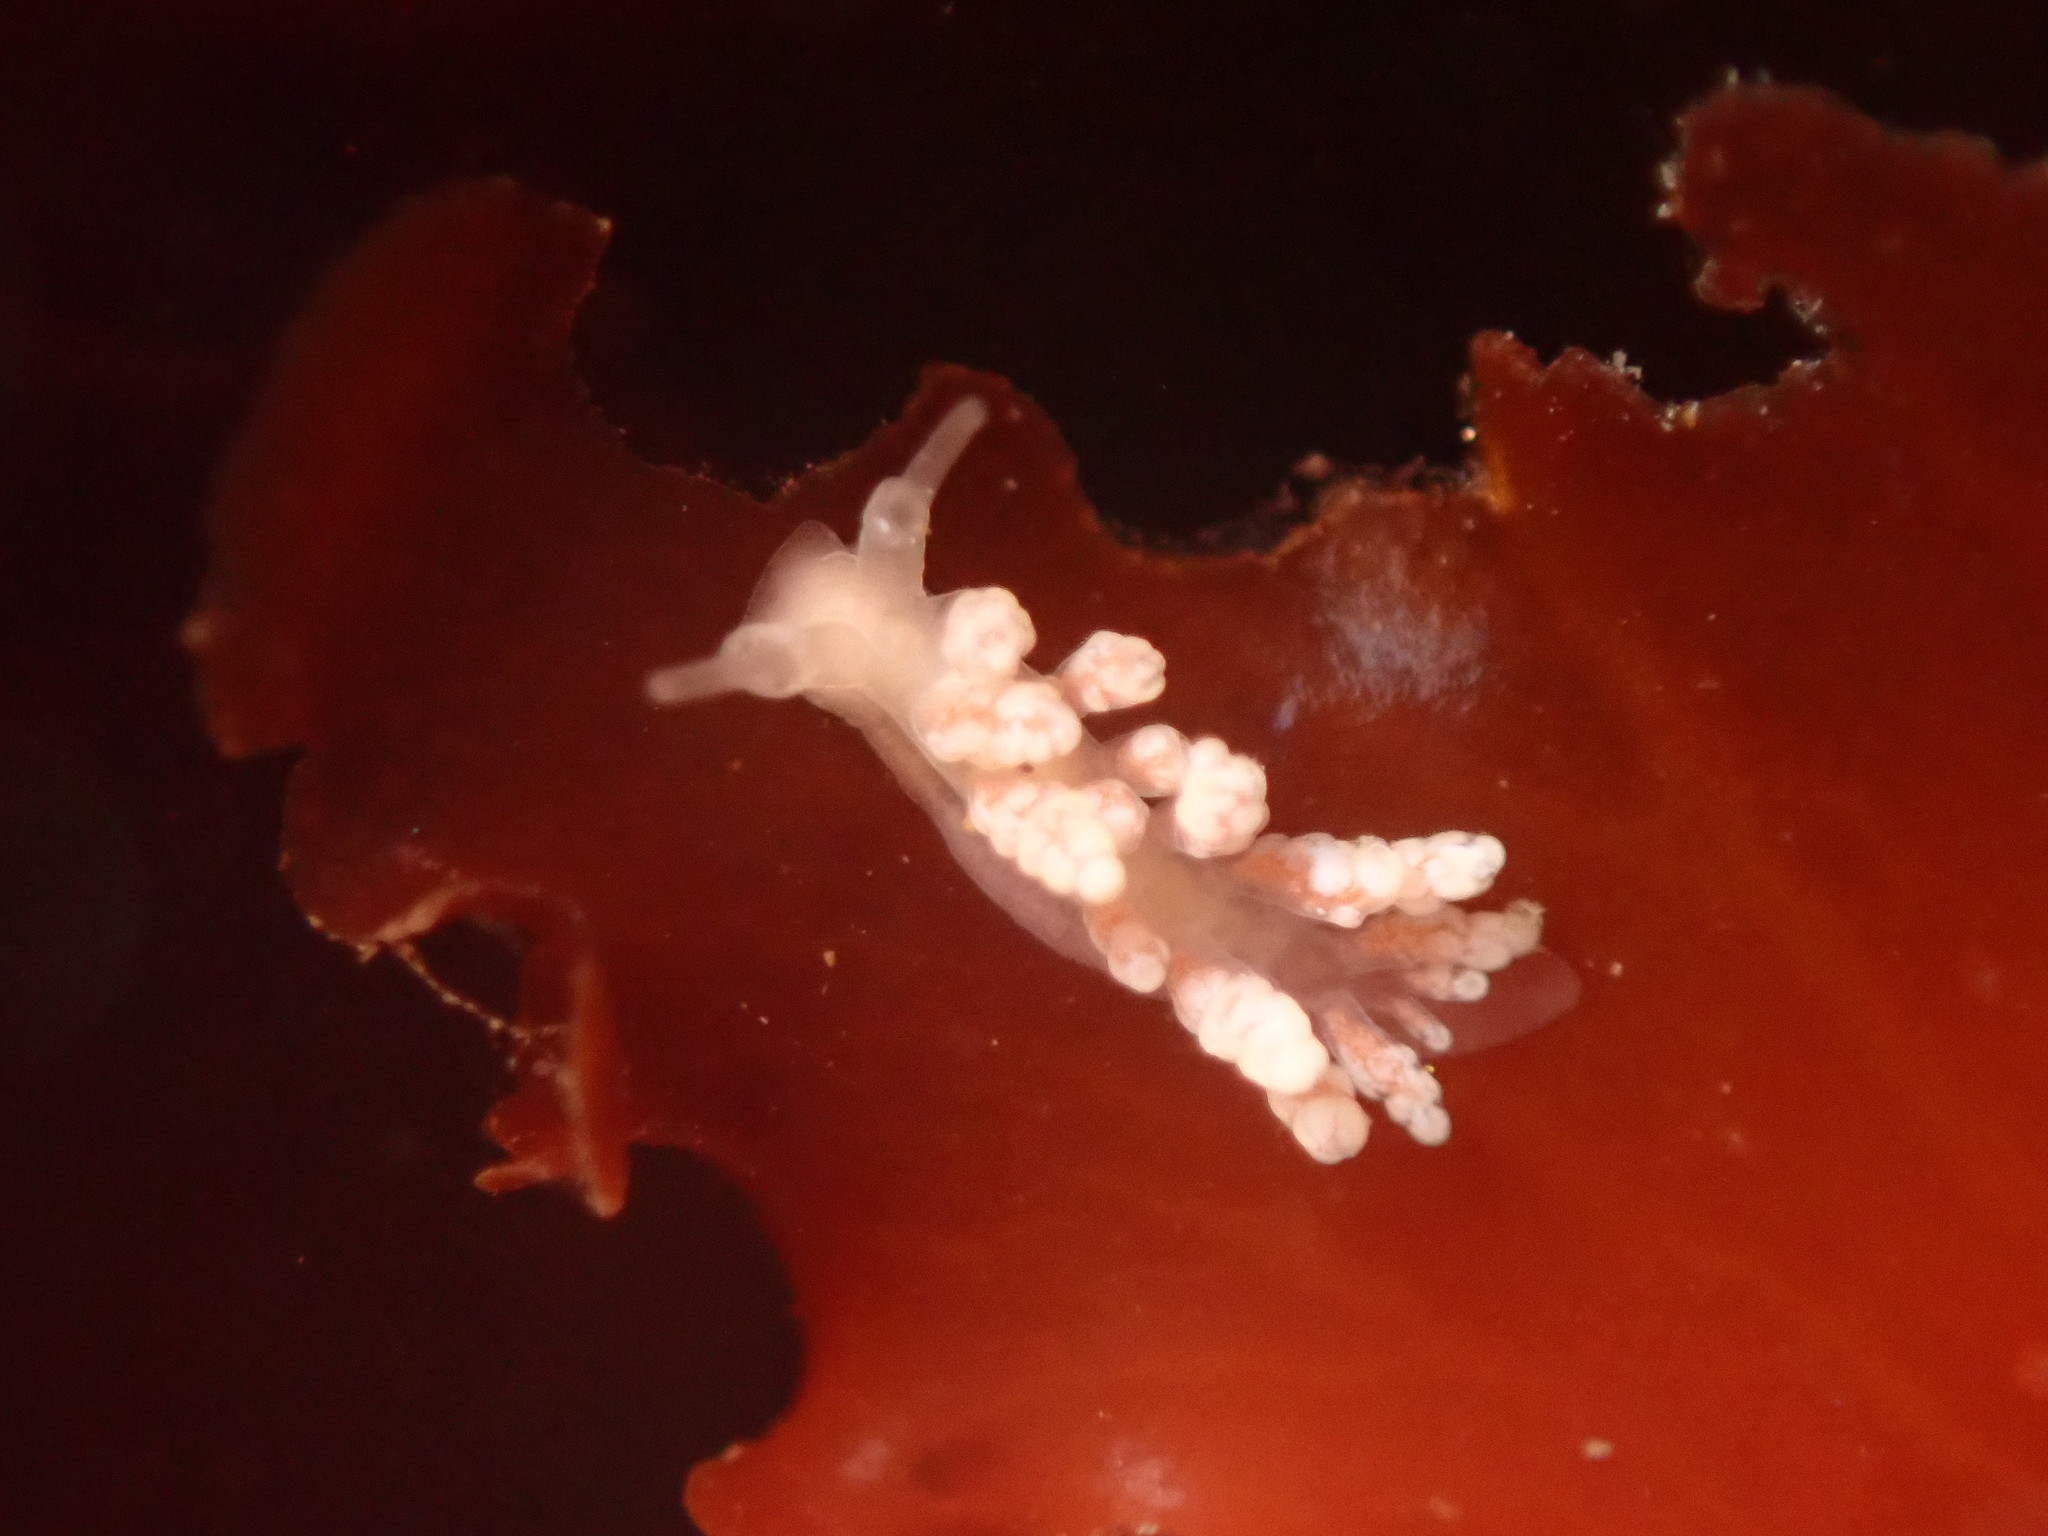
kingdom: Animalia
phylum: Mollusca
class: Gastropoda
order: Nudibranchia
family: Dotidae
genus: Doto
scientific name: Doto amyra
